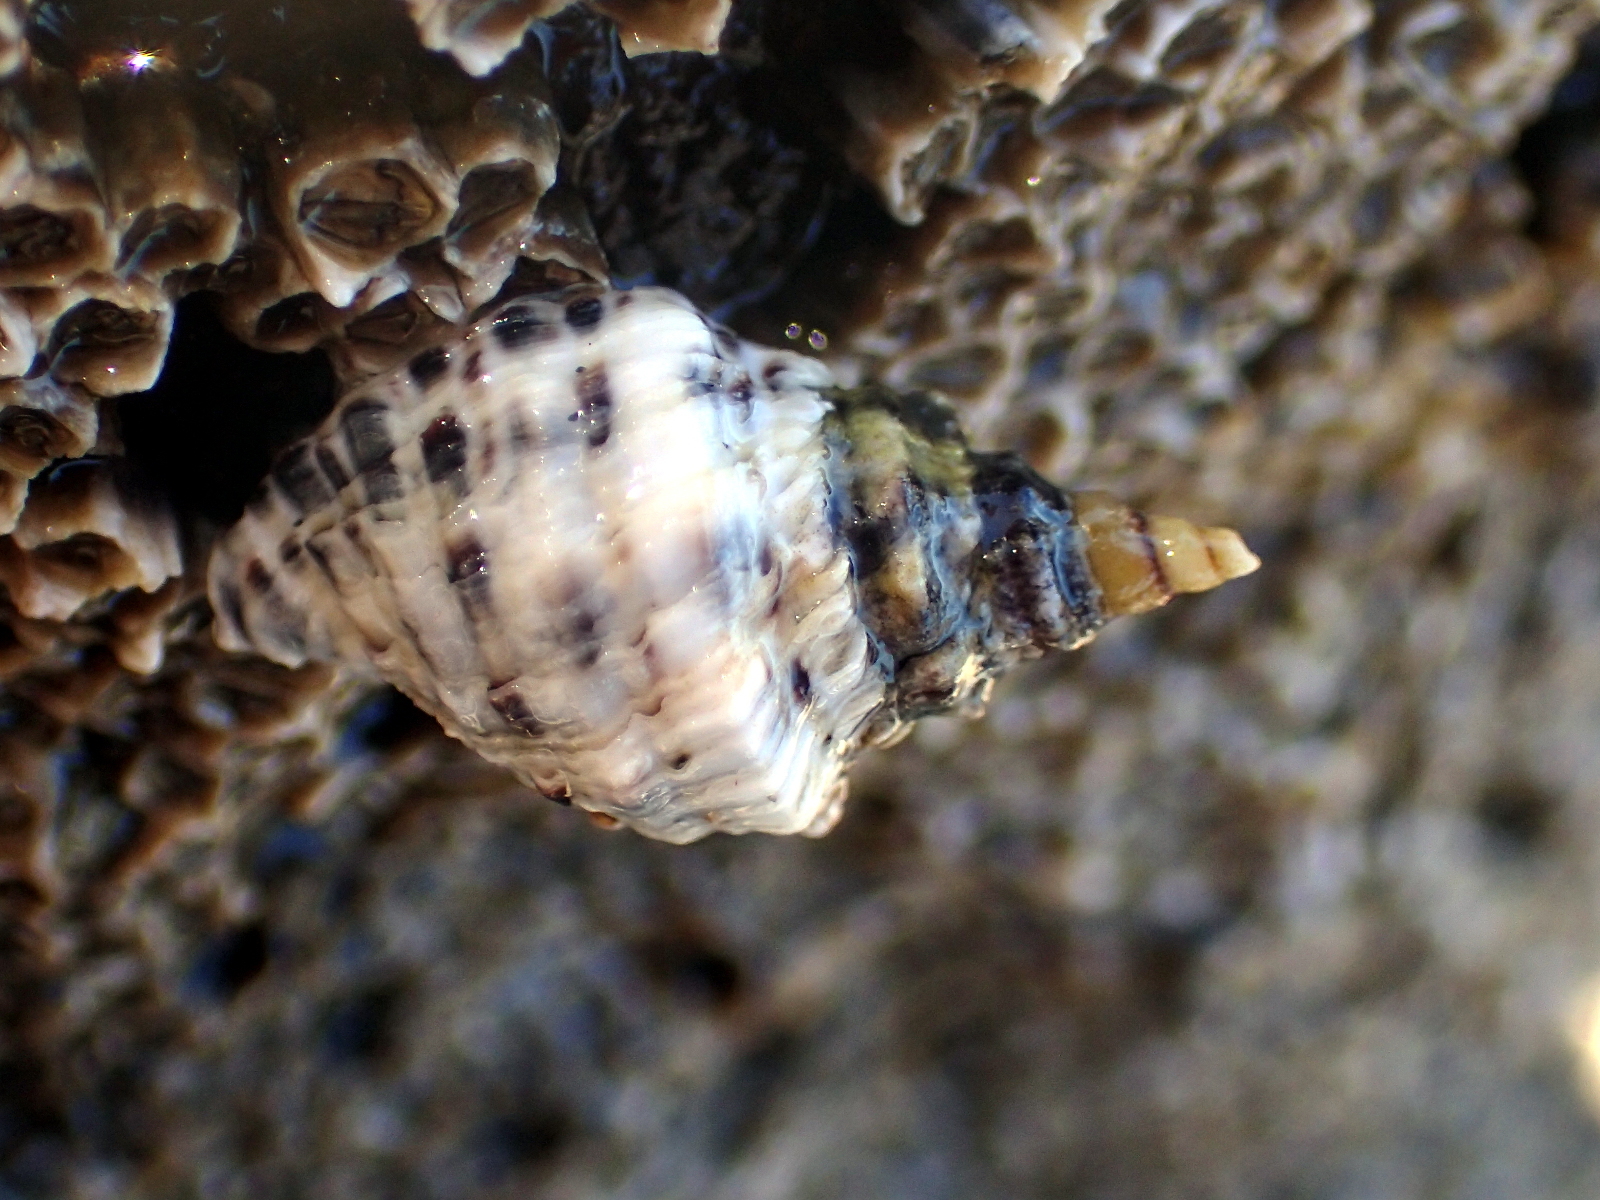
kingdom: Animalia
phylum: Mollusca
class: Gastropoda
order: Neogastropoda
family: Muricidae
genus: Haustrum
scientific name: Haustrum scobina
